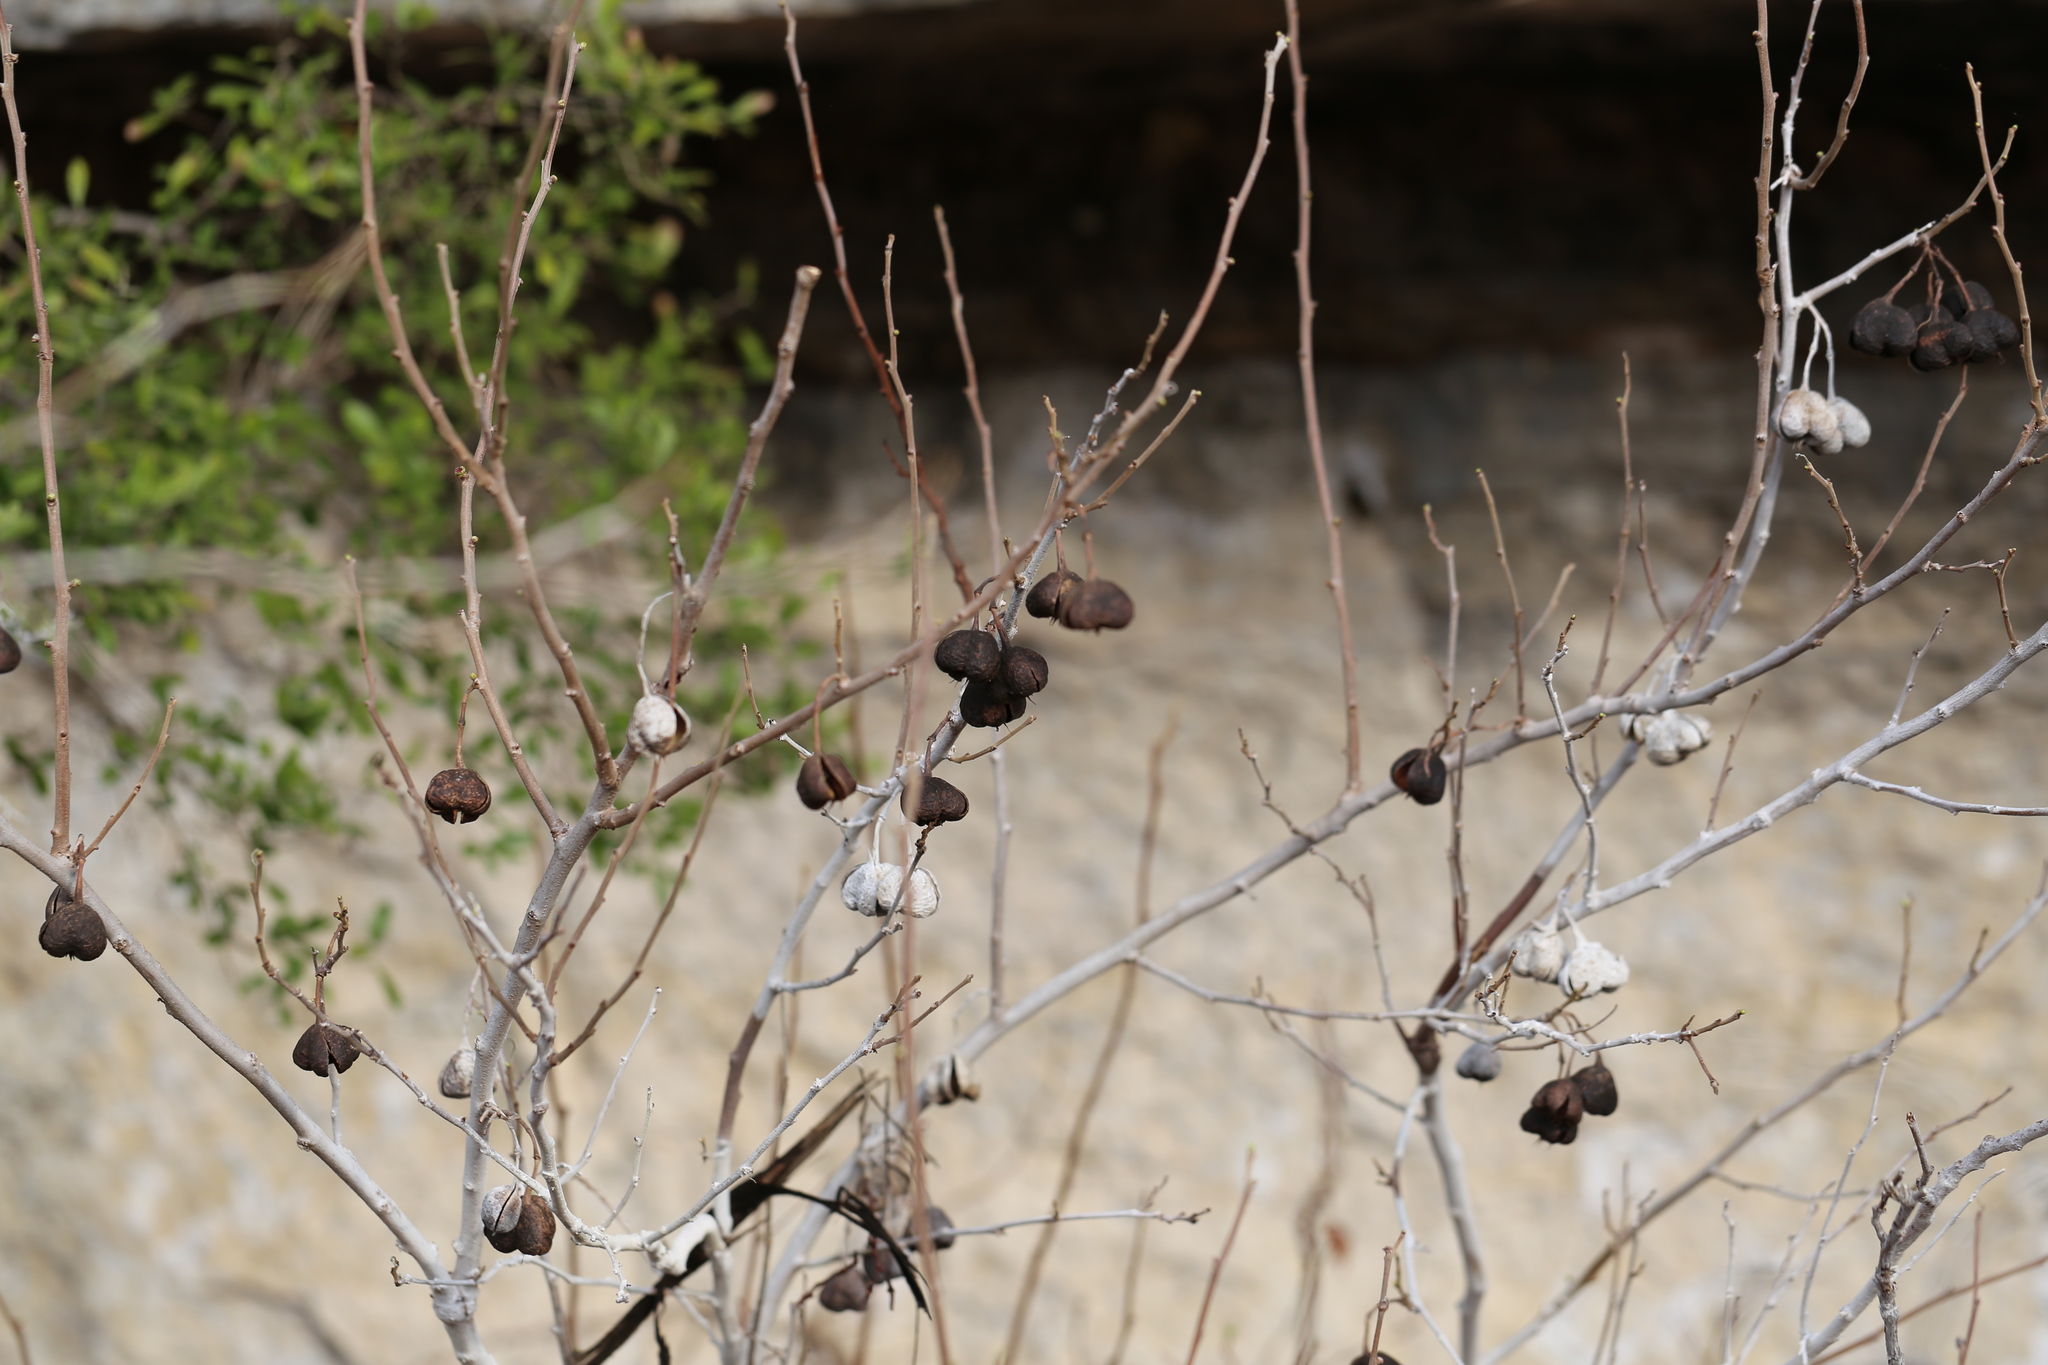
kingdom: Plantae
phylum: Tracheophyta
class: Magnoliopsida
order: Sapindales
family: Sapindaceae
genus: Ungnadia
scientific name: Ungnadia speciosa
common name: Texas-buckeye
